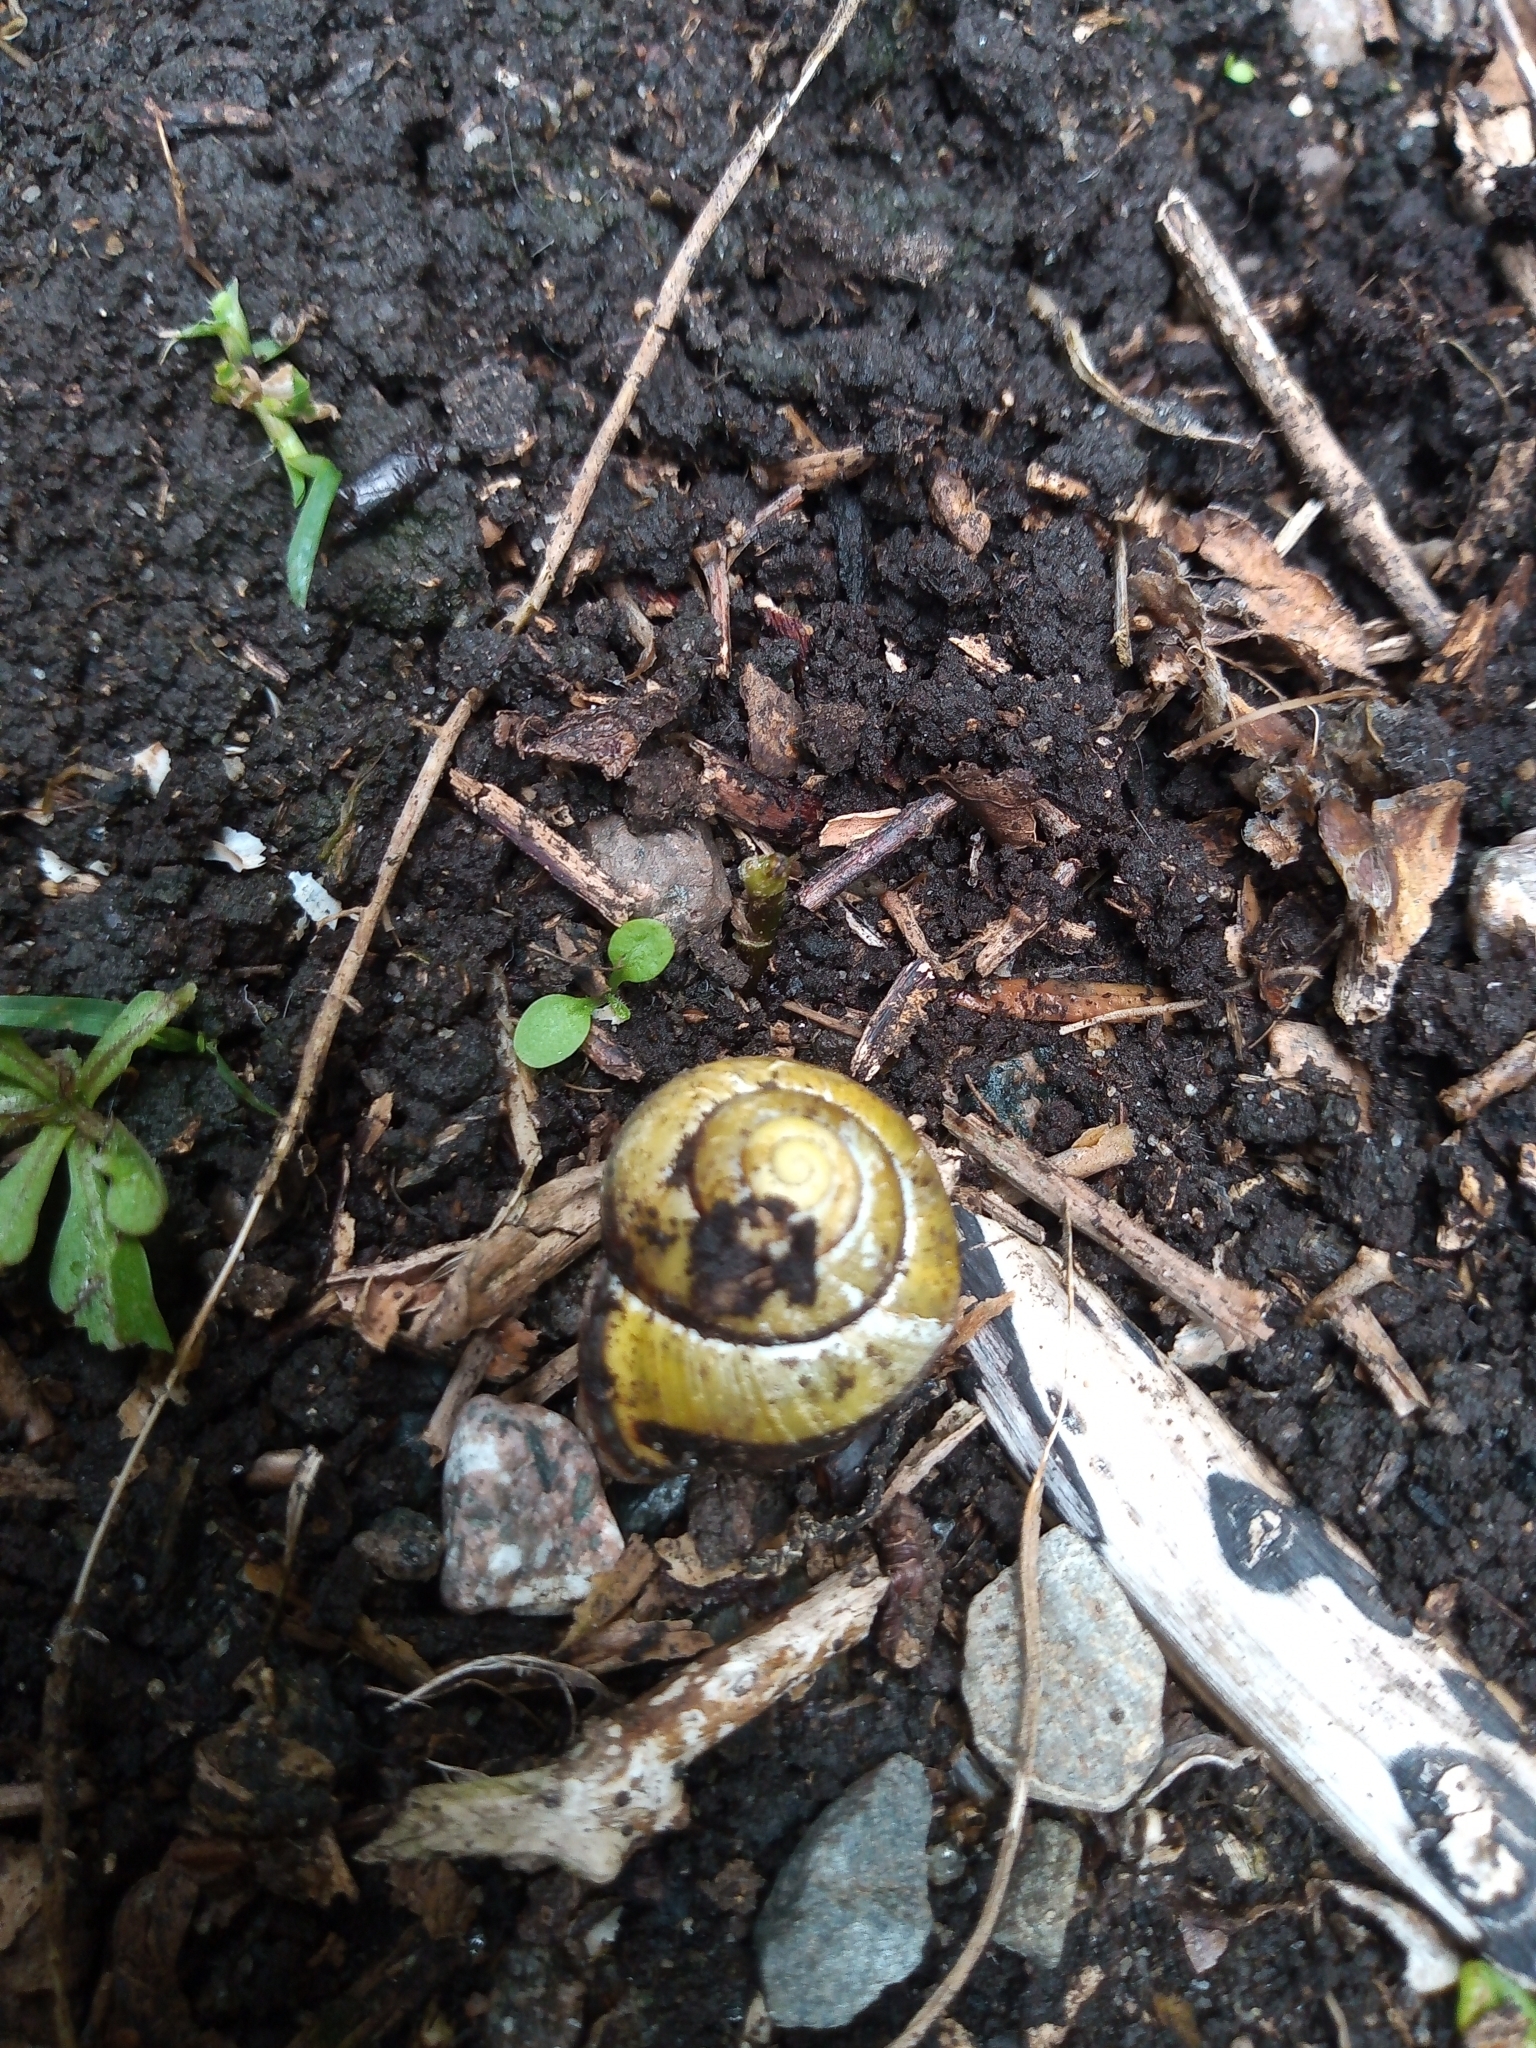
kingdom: Animalia
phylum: Mollusca
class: Gastropoda
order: Stylommatophora
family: Helicidae
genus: Cepaea
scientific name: Cepaea nemoralis
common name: Grovesnail
